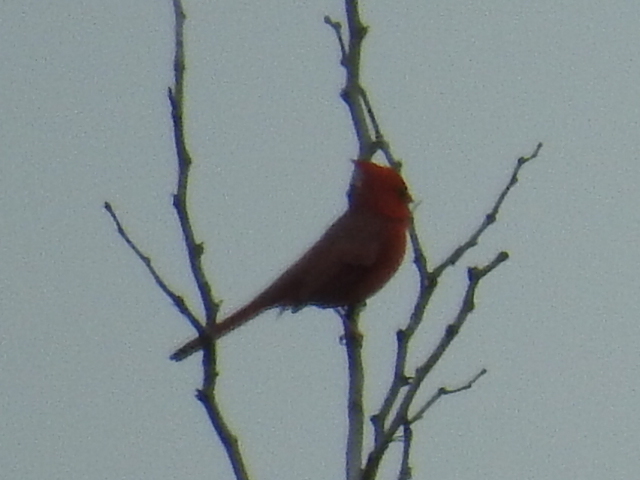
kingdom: Animalia
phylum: Chordata
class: Aves
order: Passeriformes
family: Cardinalidae
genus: Cardinalis
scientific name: Cardinalis cardinalis
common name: Northern cardinal
